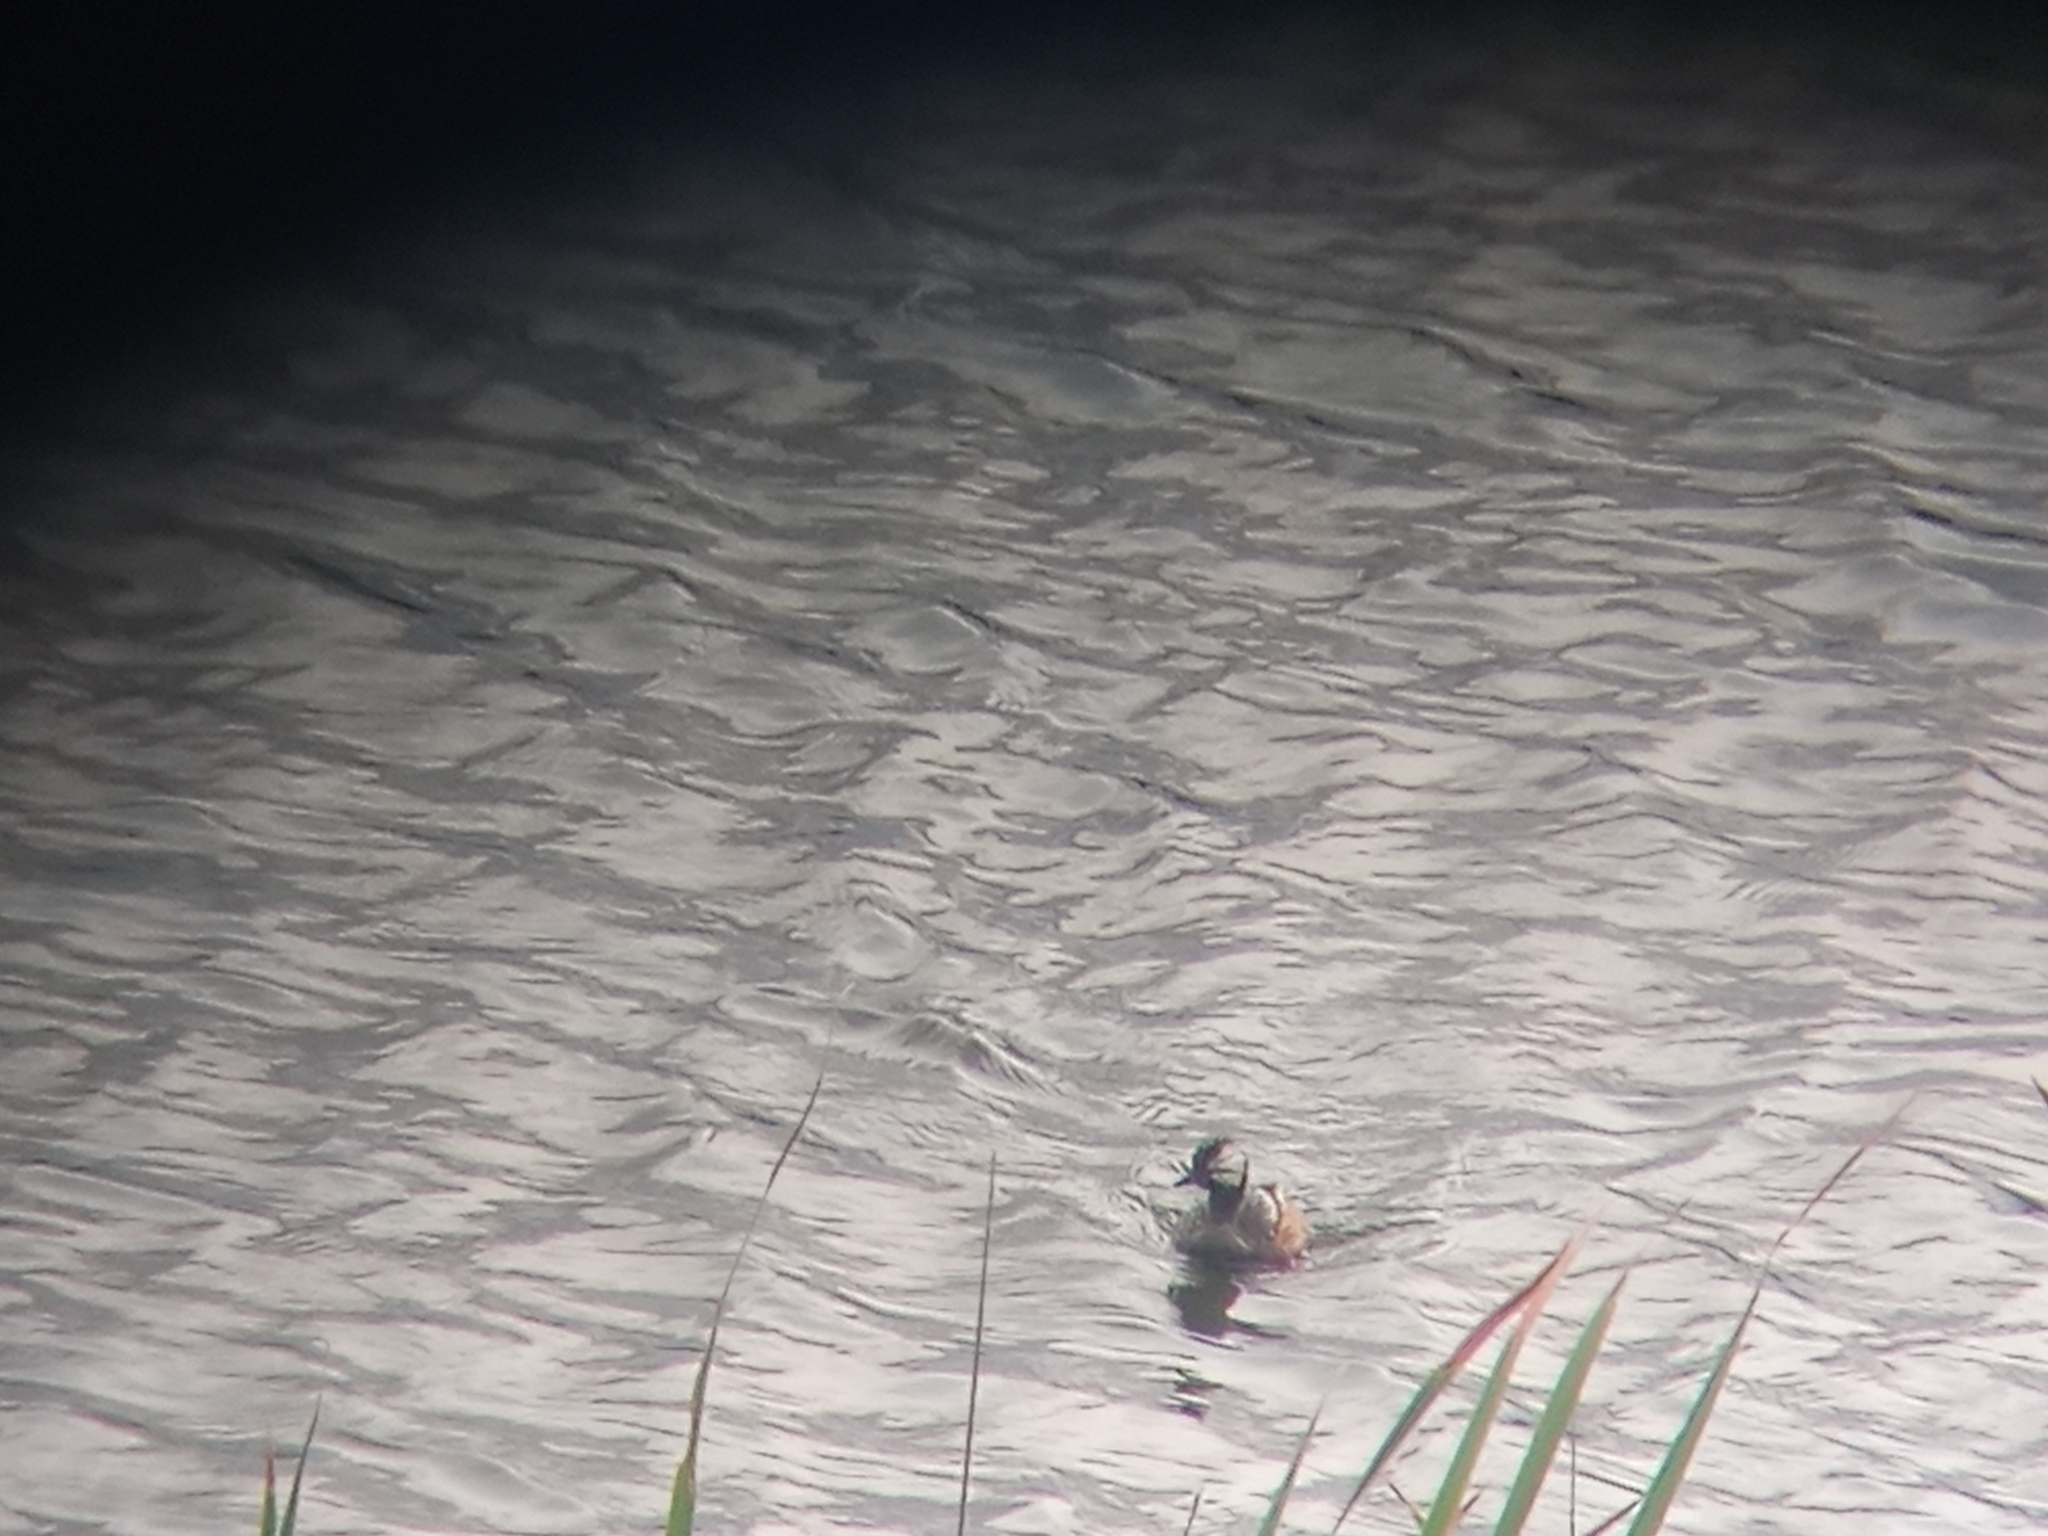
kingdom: Animalia
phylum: Chordata
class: Aves
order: Podicipediformes
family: Podicipedidae
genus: Rollandia
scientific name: Rollandia rolland
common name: White-tufted grebe
